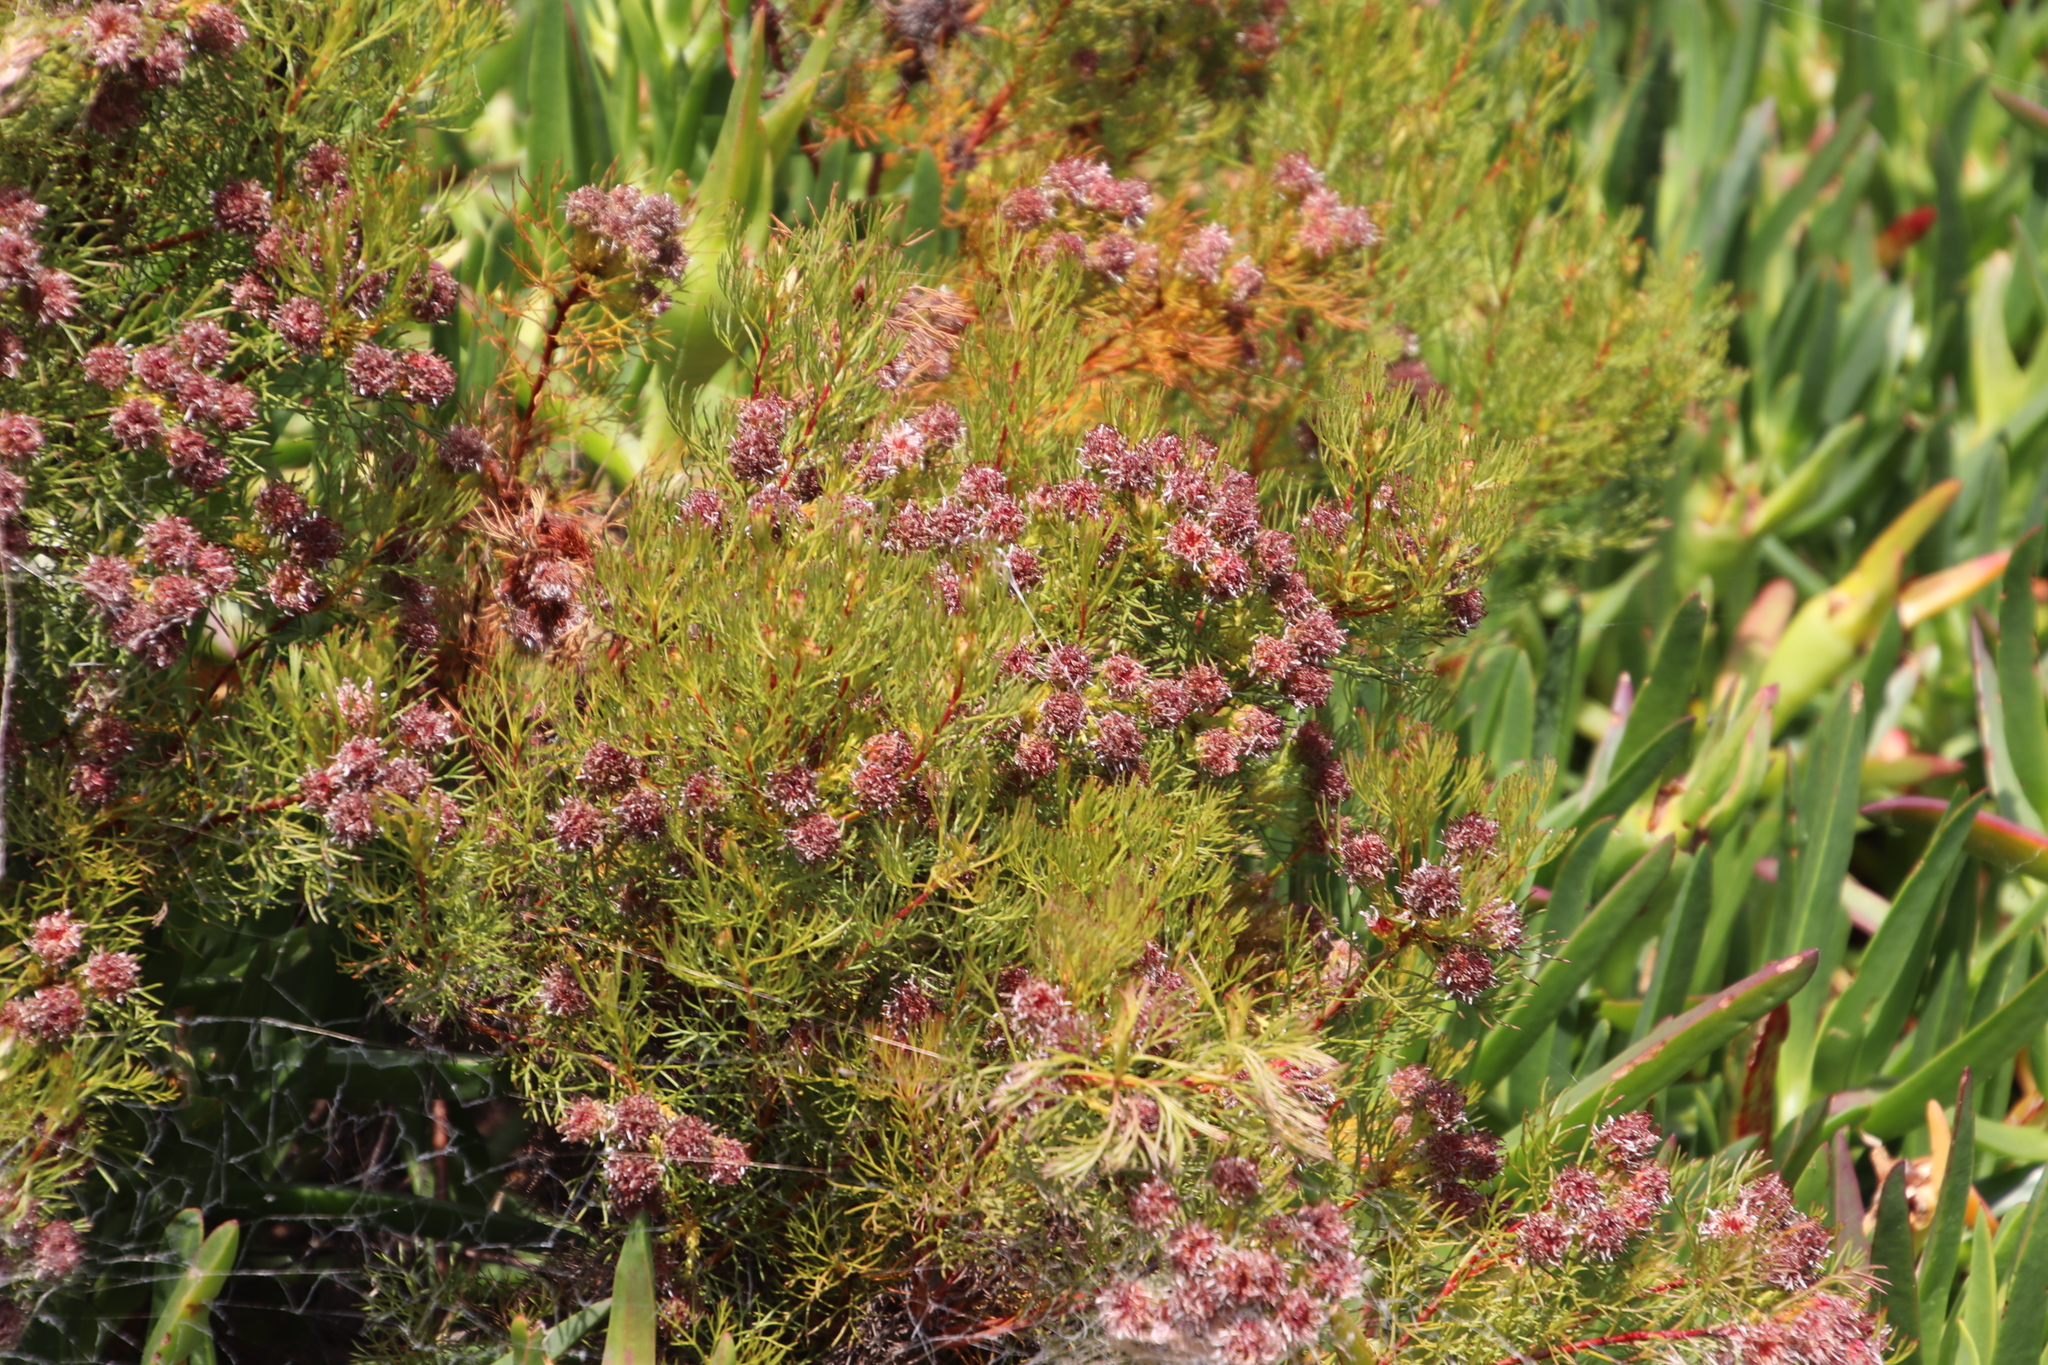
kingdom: Plantae
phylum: Tracheophyta
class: Magnoliopsida
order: Proteales
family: Proteaceae
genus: Serruria
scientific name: Serruria
